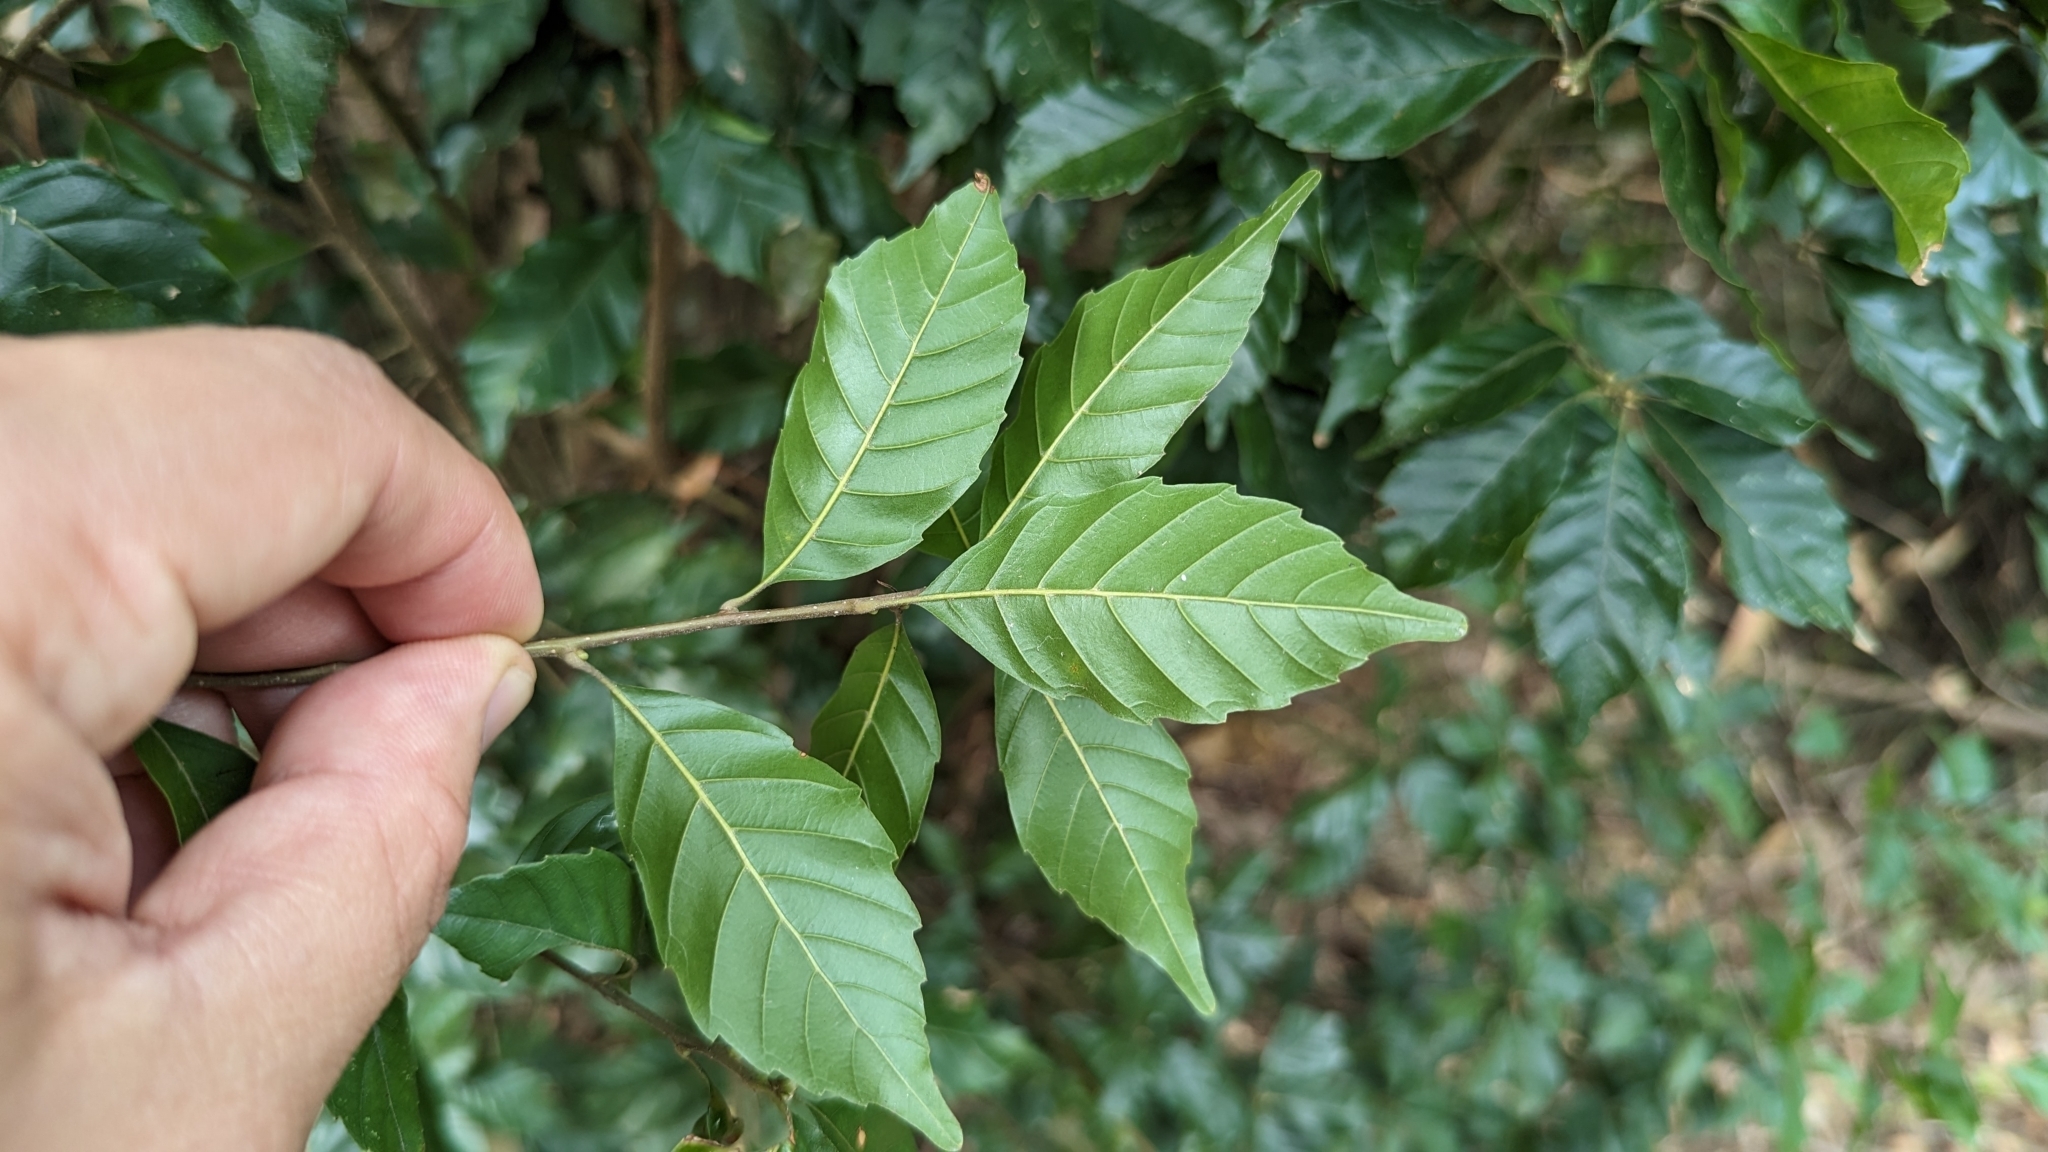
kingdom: Plantae
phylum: Tracheophyta
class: Magnoliopsida
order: Fagales
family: Fagaceae
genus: Lithocarpus
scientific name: Lithocarpus konishii
